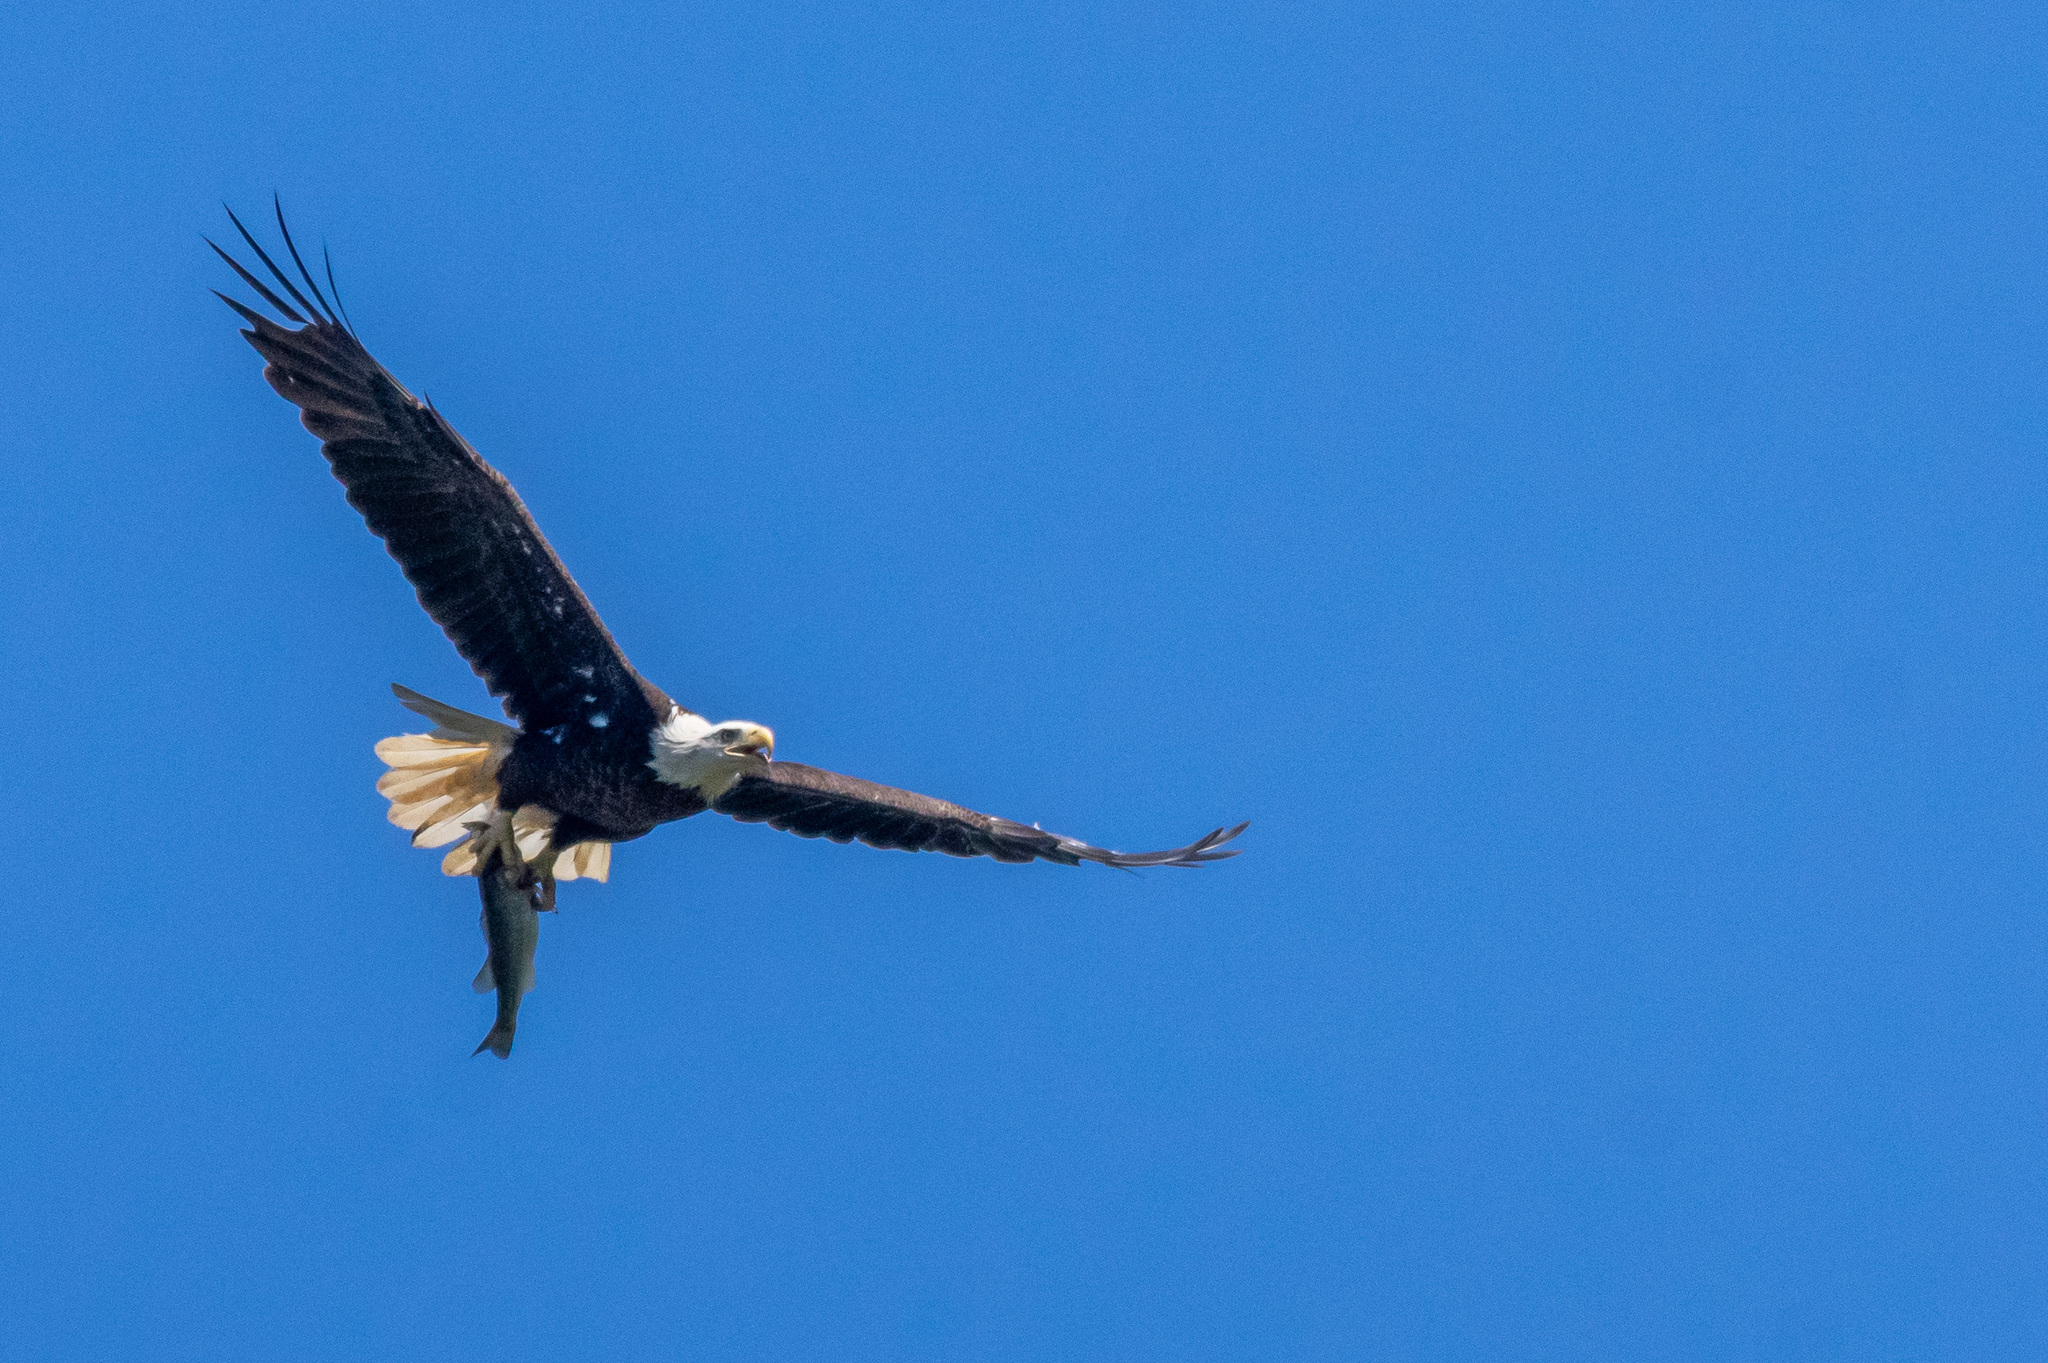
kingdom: Animalia
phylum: Chordata
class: Aves
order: Accipitriformes
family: Accipitridae
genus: Haliaeetus
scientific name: Haliaeetus leucocephalus
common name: Bald eagle
